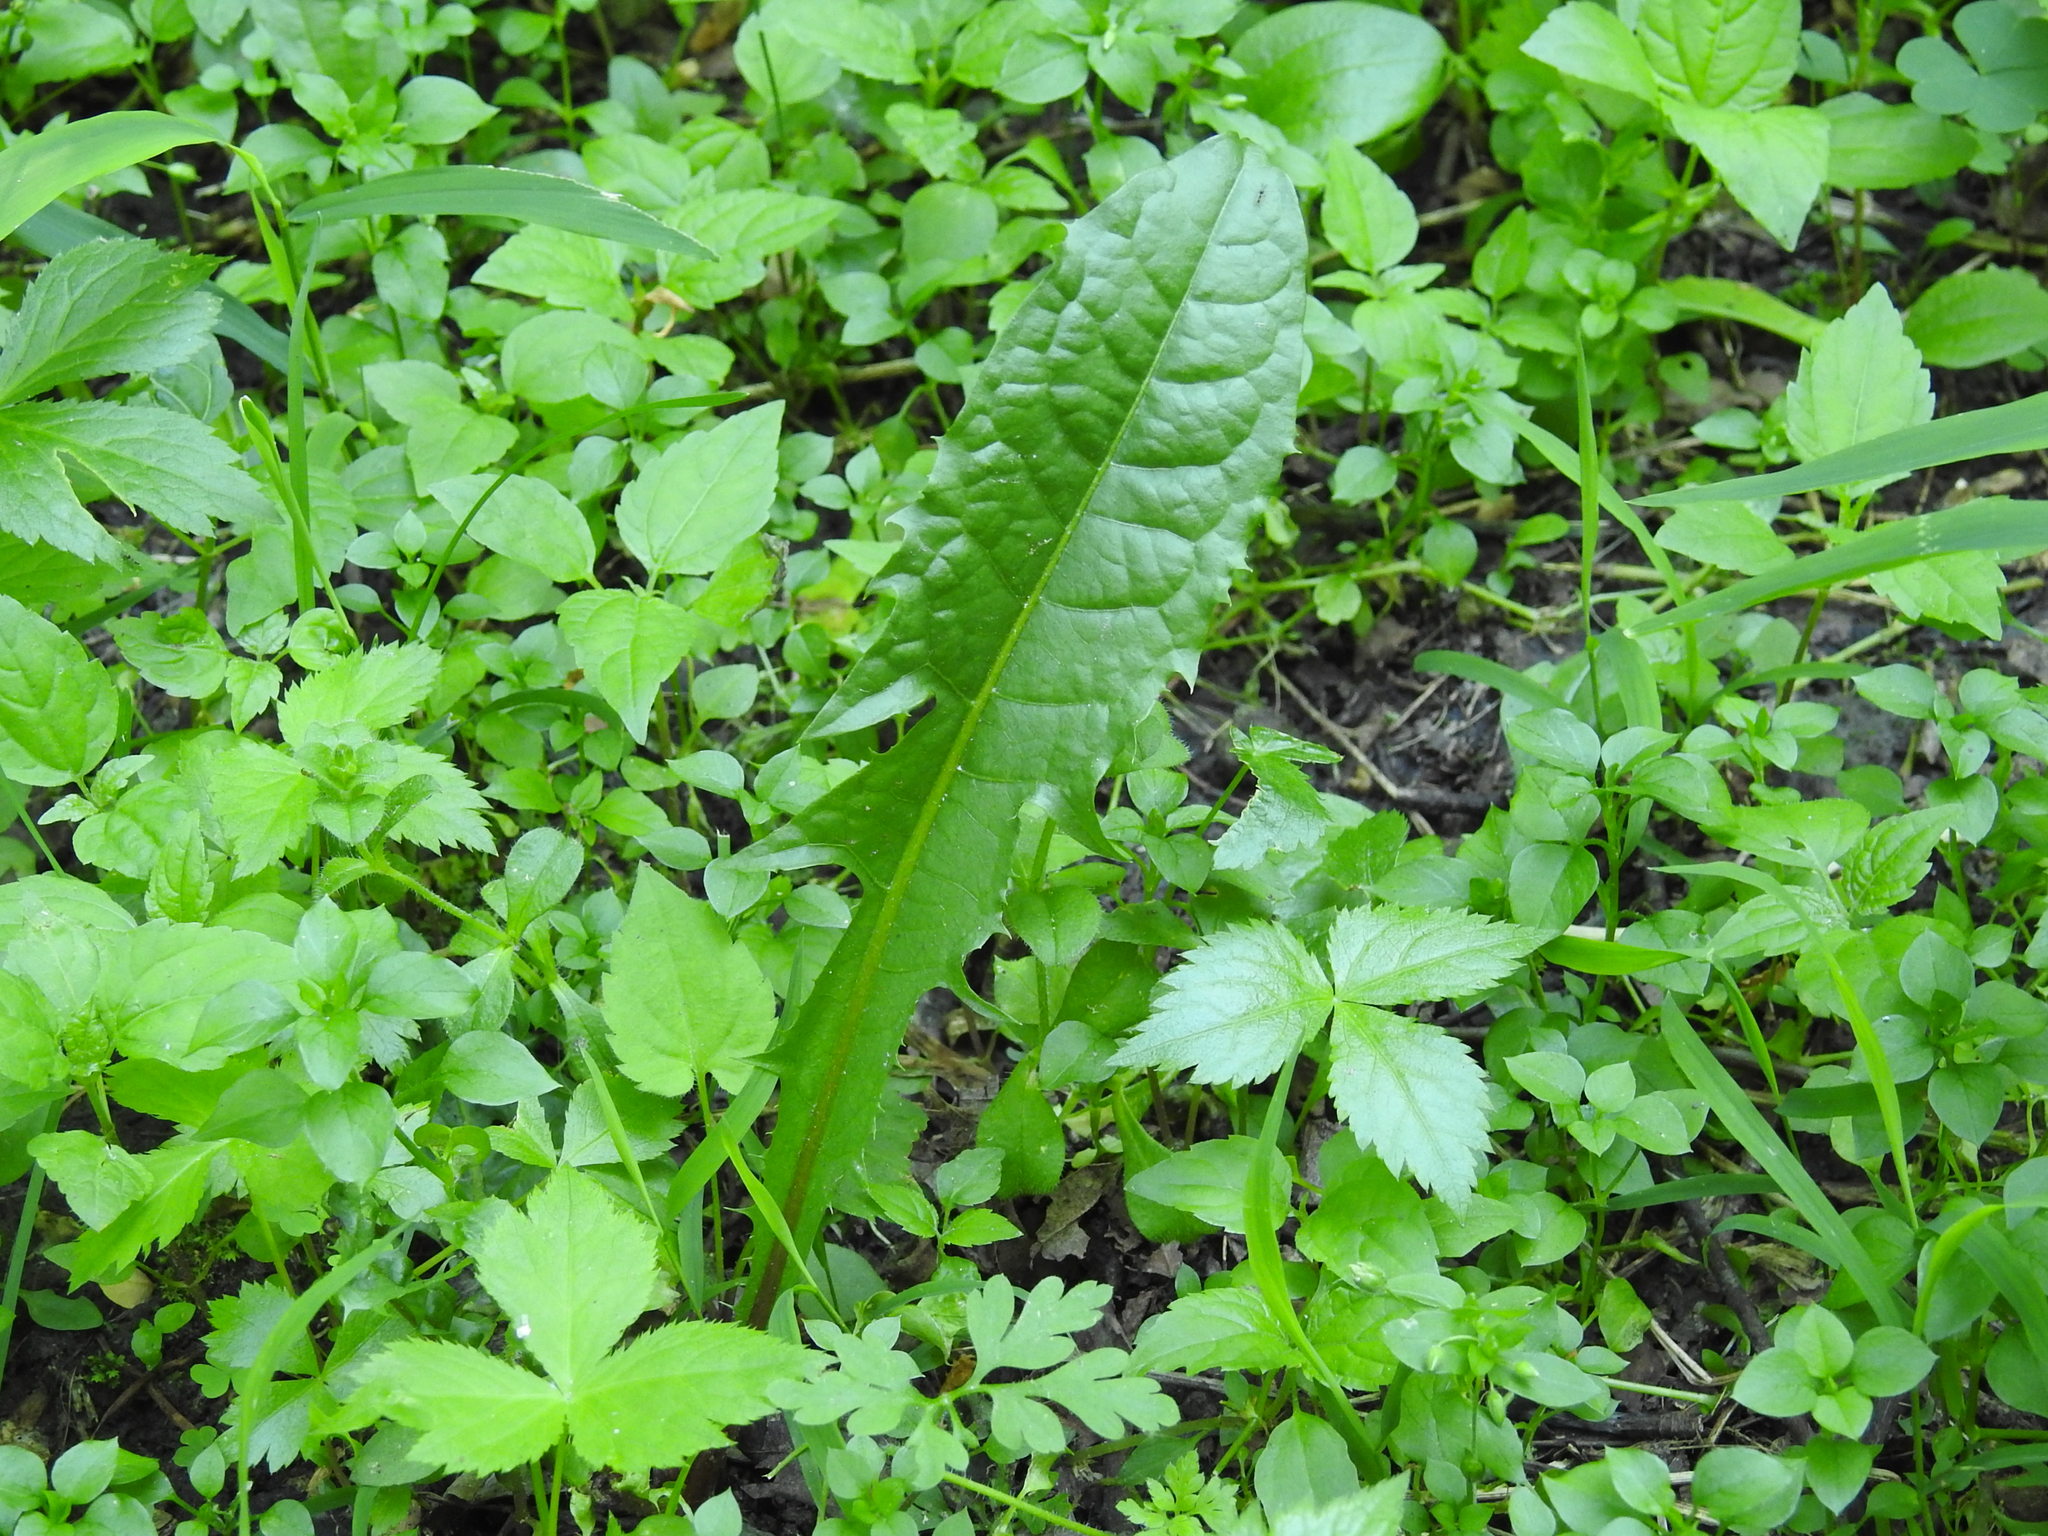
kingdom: Plantae
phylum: Tracheophyta
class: Magnoliopsida
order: Asterales
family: Asteraceae
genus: Taraxacum
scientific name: Taraxacum officinale
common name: Common dandelion
